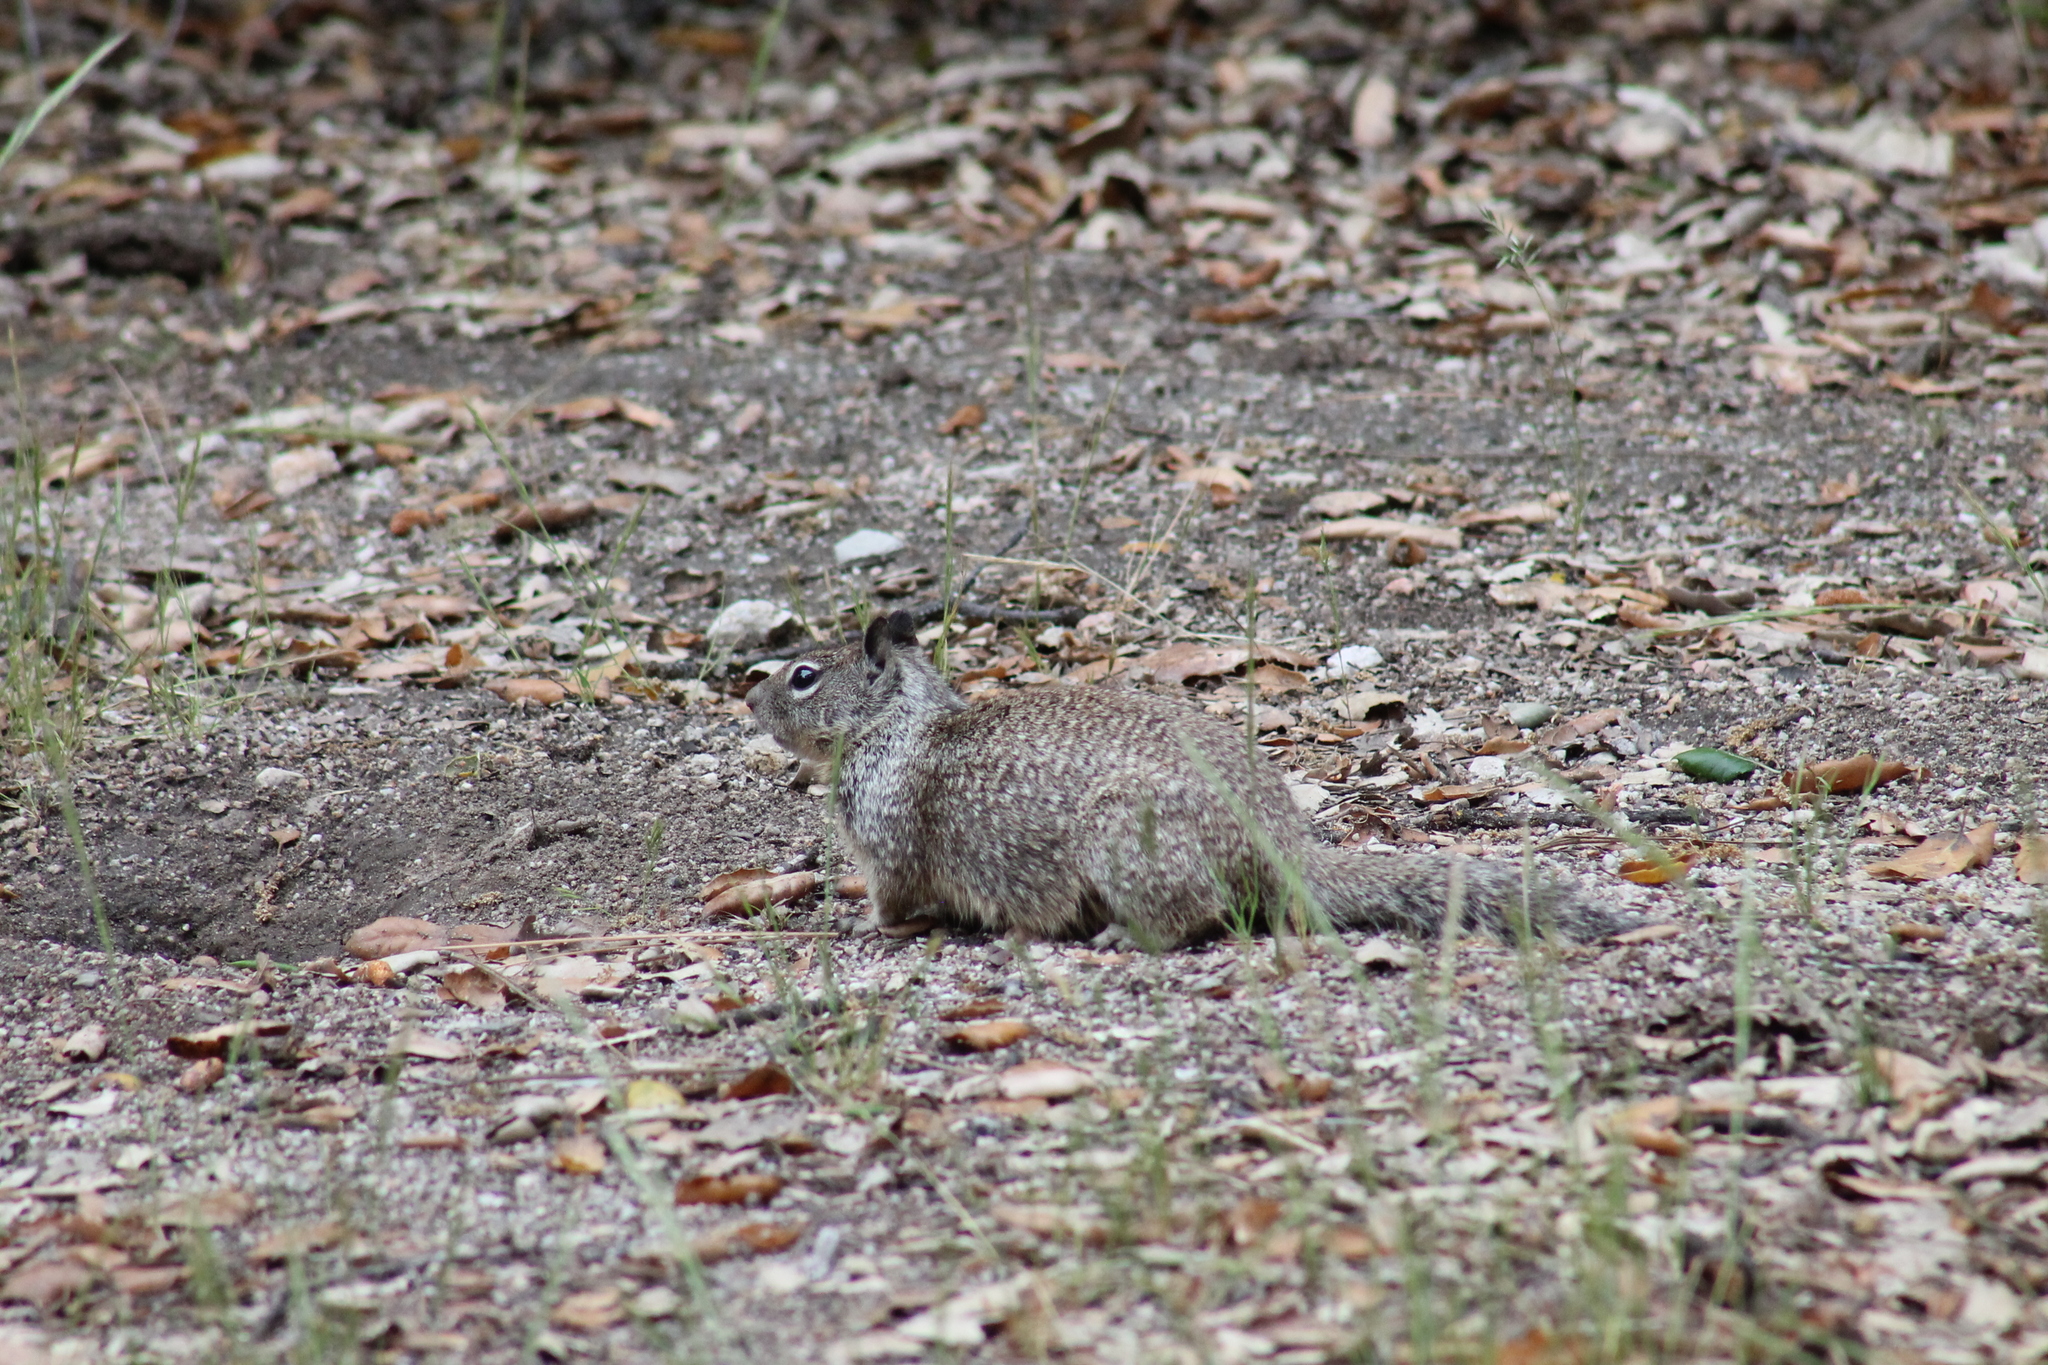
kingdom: Animalia
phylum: Chordata
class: Mammalia
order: Rodentia
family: Sciuridae
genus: Otospermophilus
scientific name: Otospermophilus beecheyi
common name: California ground squirrel
